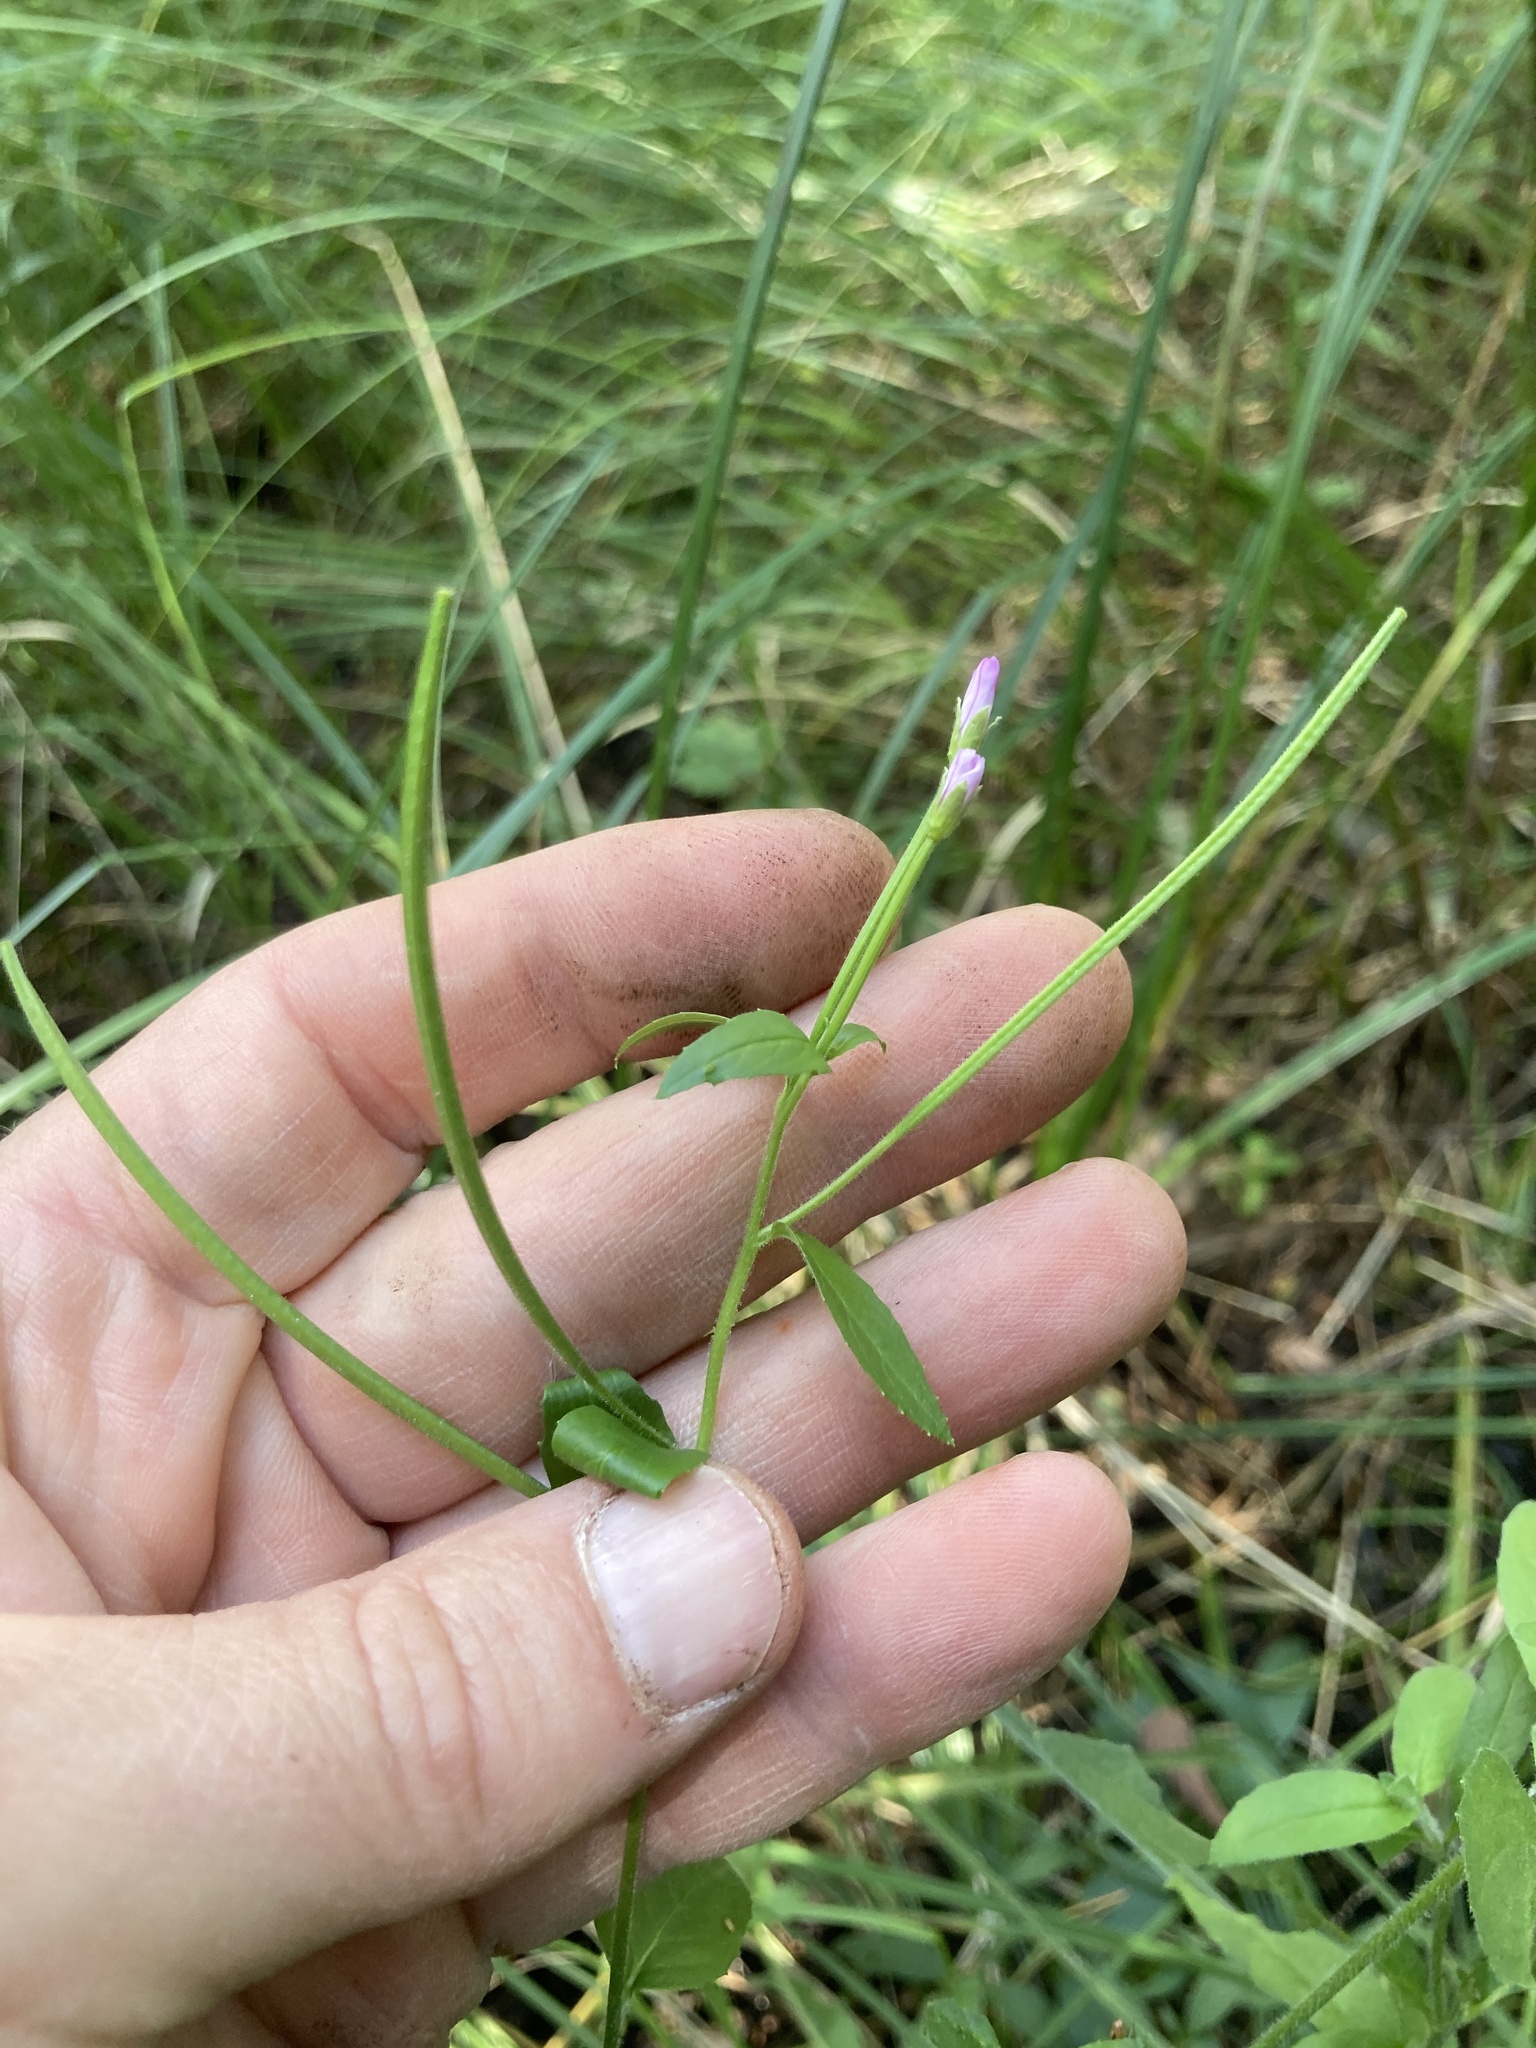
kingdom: Plantae
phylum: Tracheophyta
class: Magnoliopsida
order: Myrtales
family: Onagraceae
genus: Epilobium
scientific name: Epilobium parviflorum
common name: Hoary willowherb
